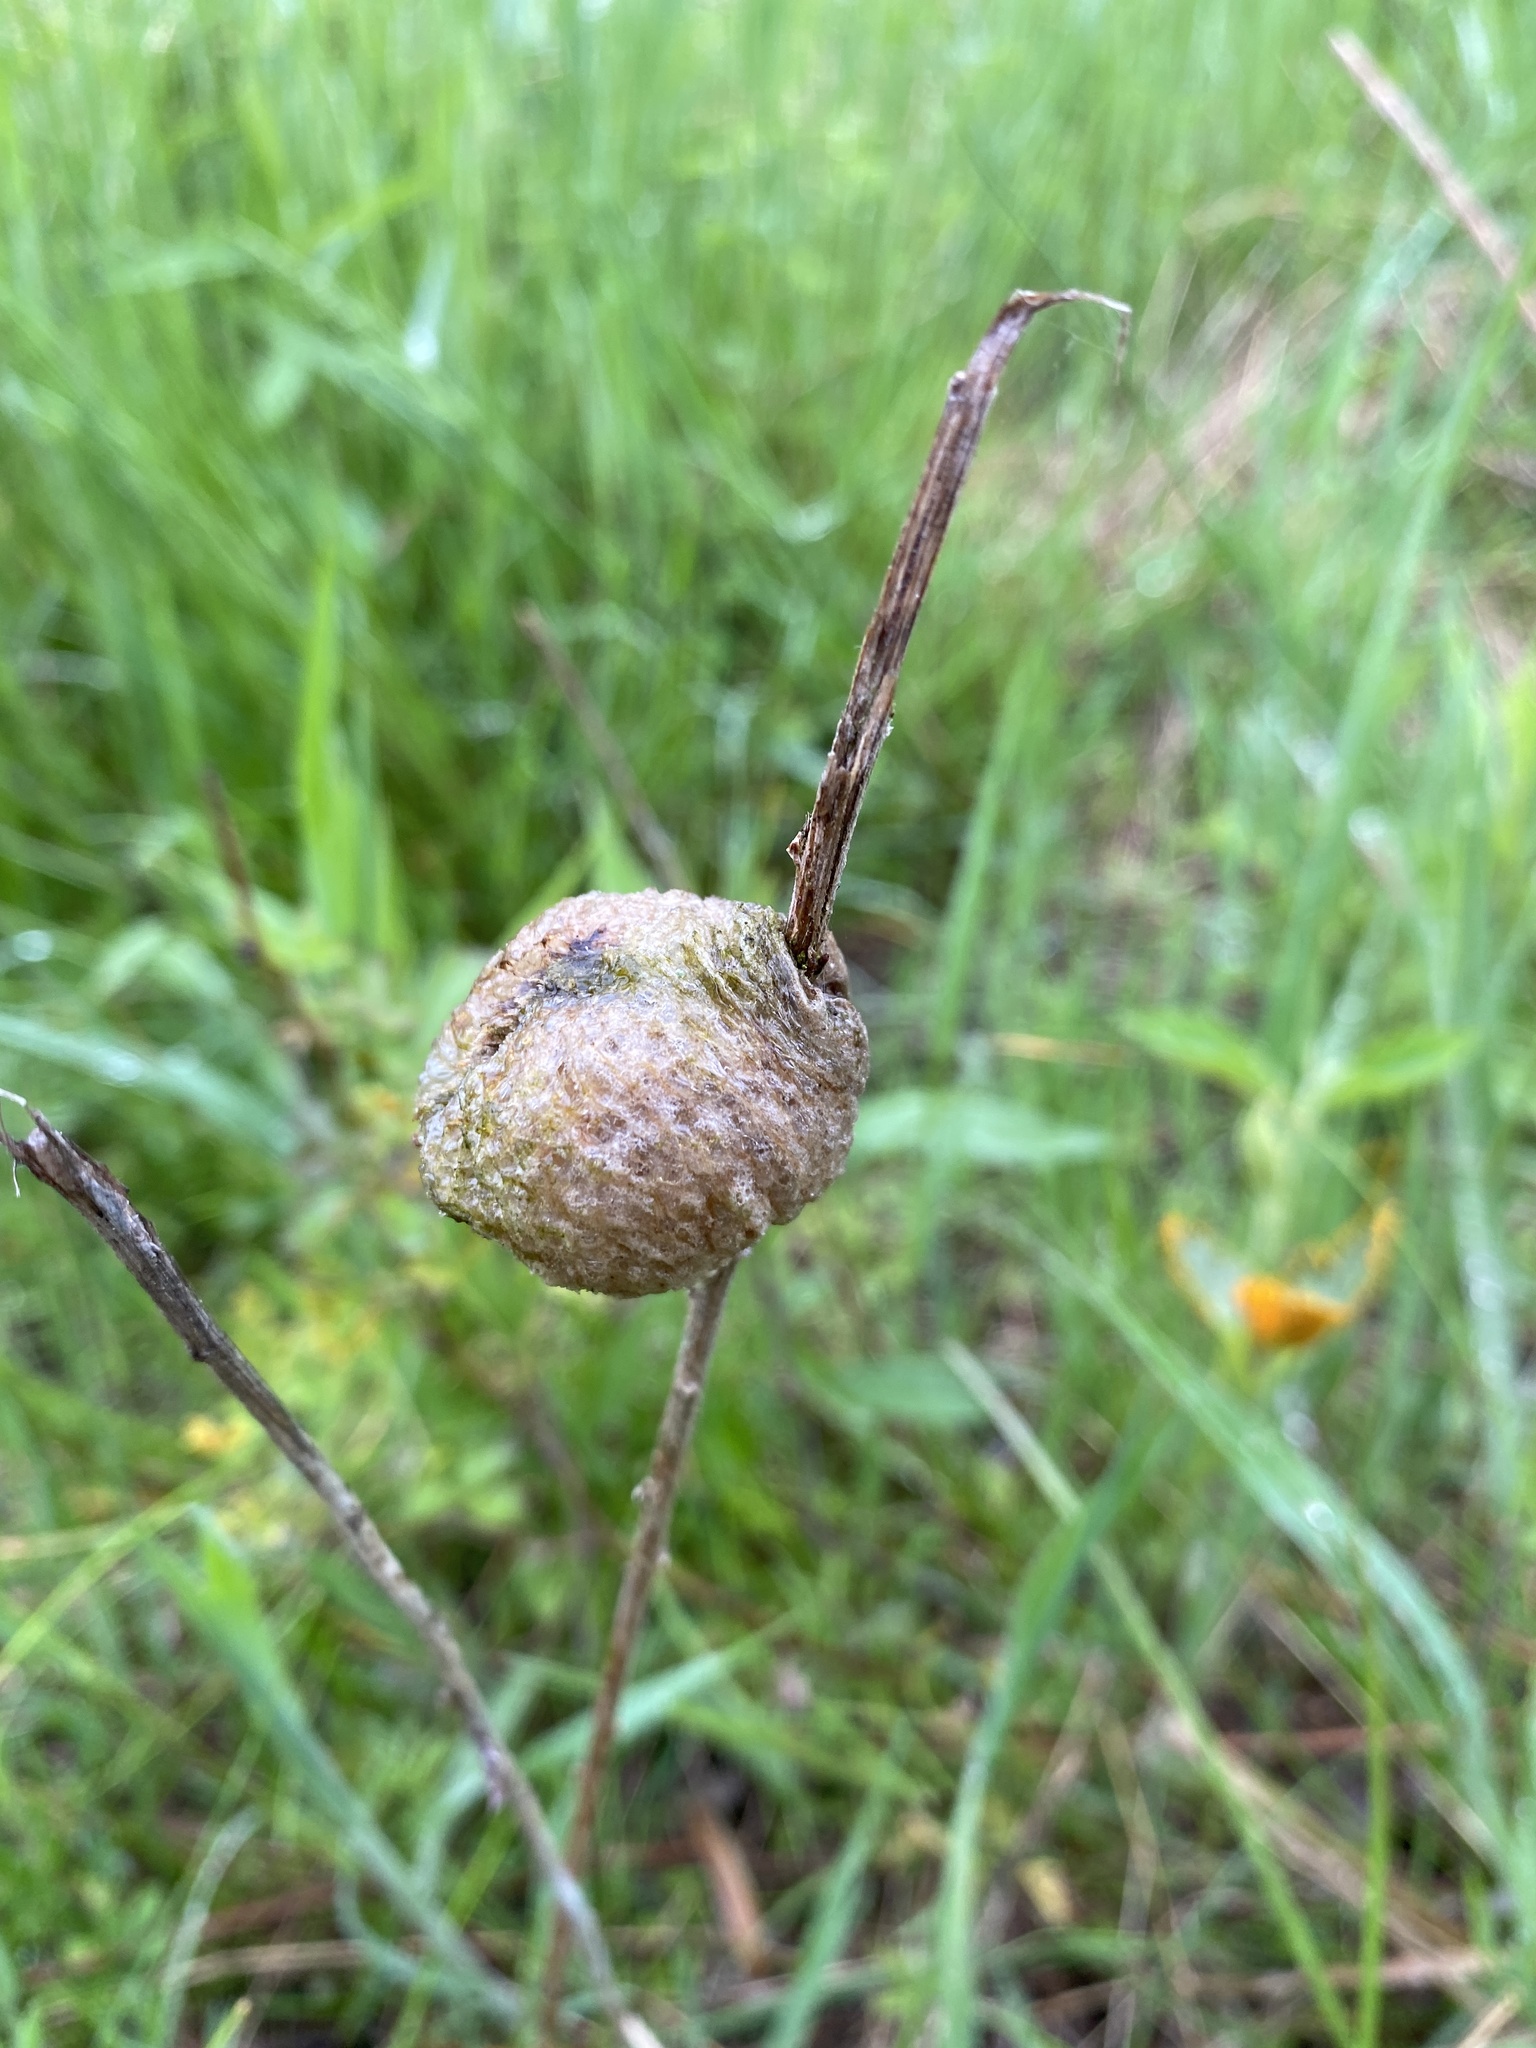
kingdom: Animalia
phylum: Arthropoda
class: Insecta
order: Mantodea
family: Mantidae
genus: Tenodera
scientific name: Tenodera sinensis
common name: Chinese mantis
